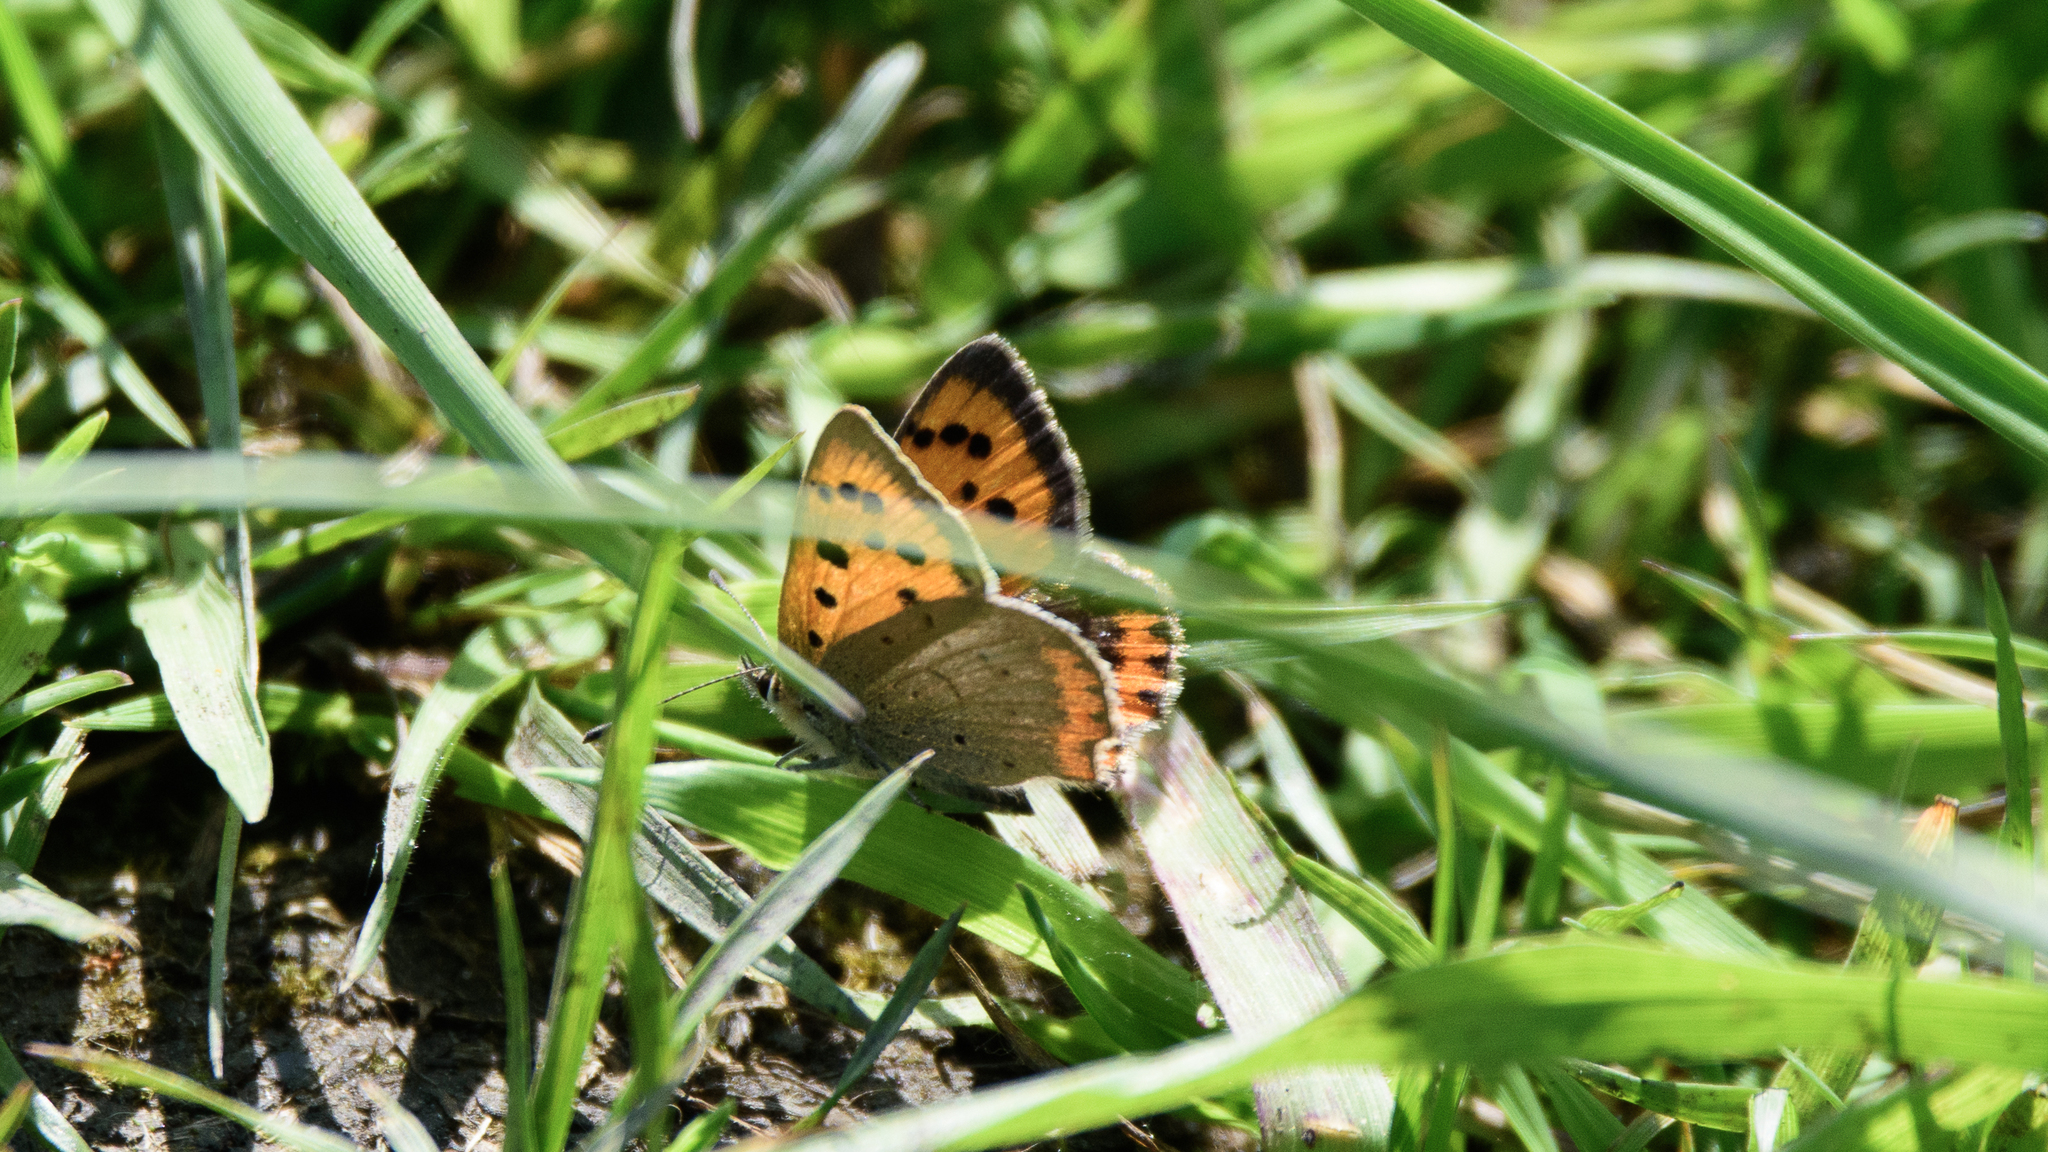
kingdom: Animalia
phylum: Arthropoda
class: Insecta
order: Lepidoptera
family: Lycaenidae
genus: Lycaena
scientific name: Lycaena phlaeas
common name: Small copper
